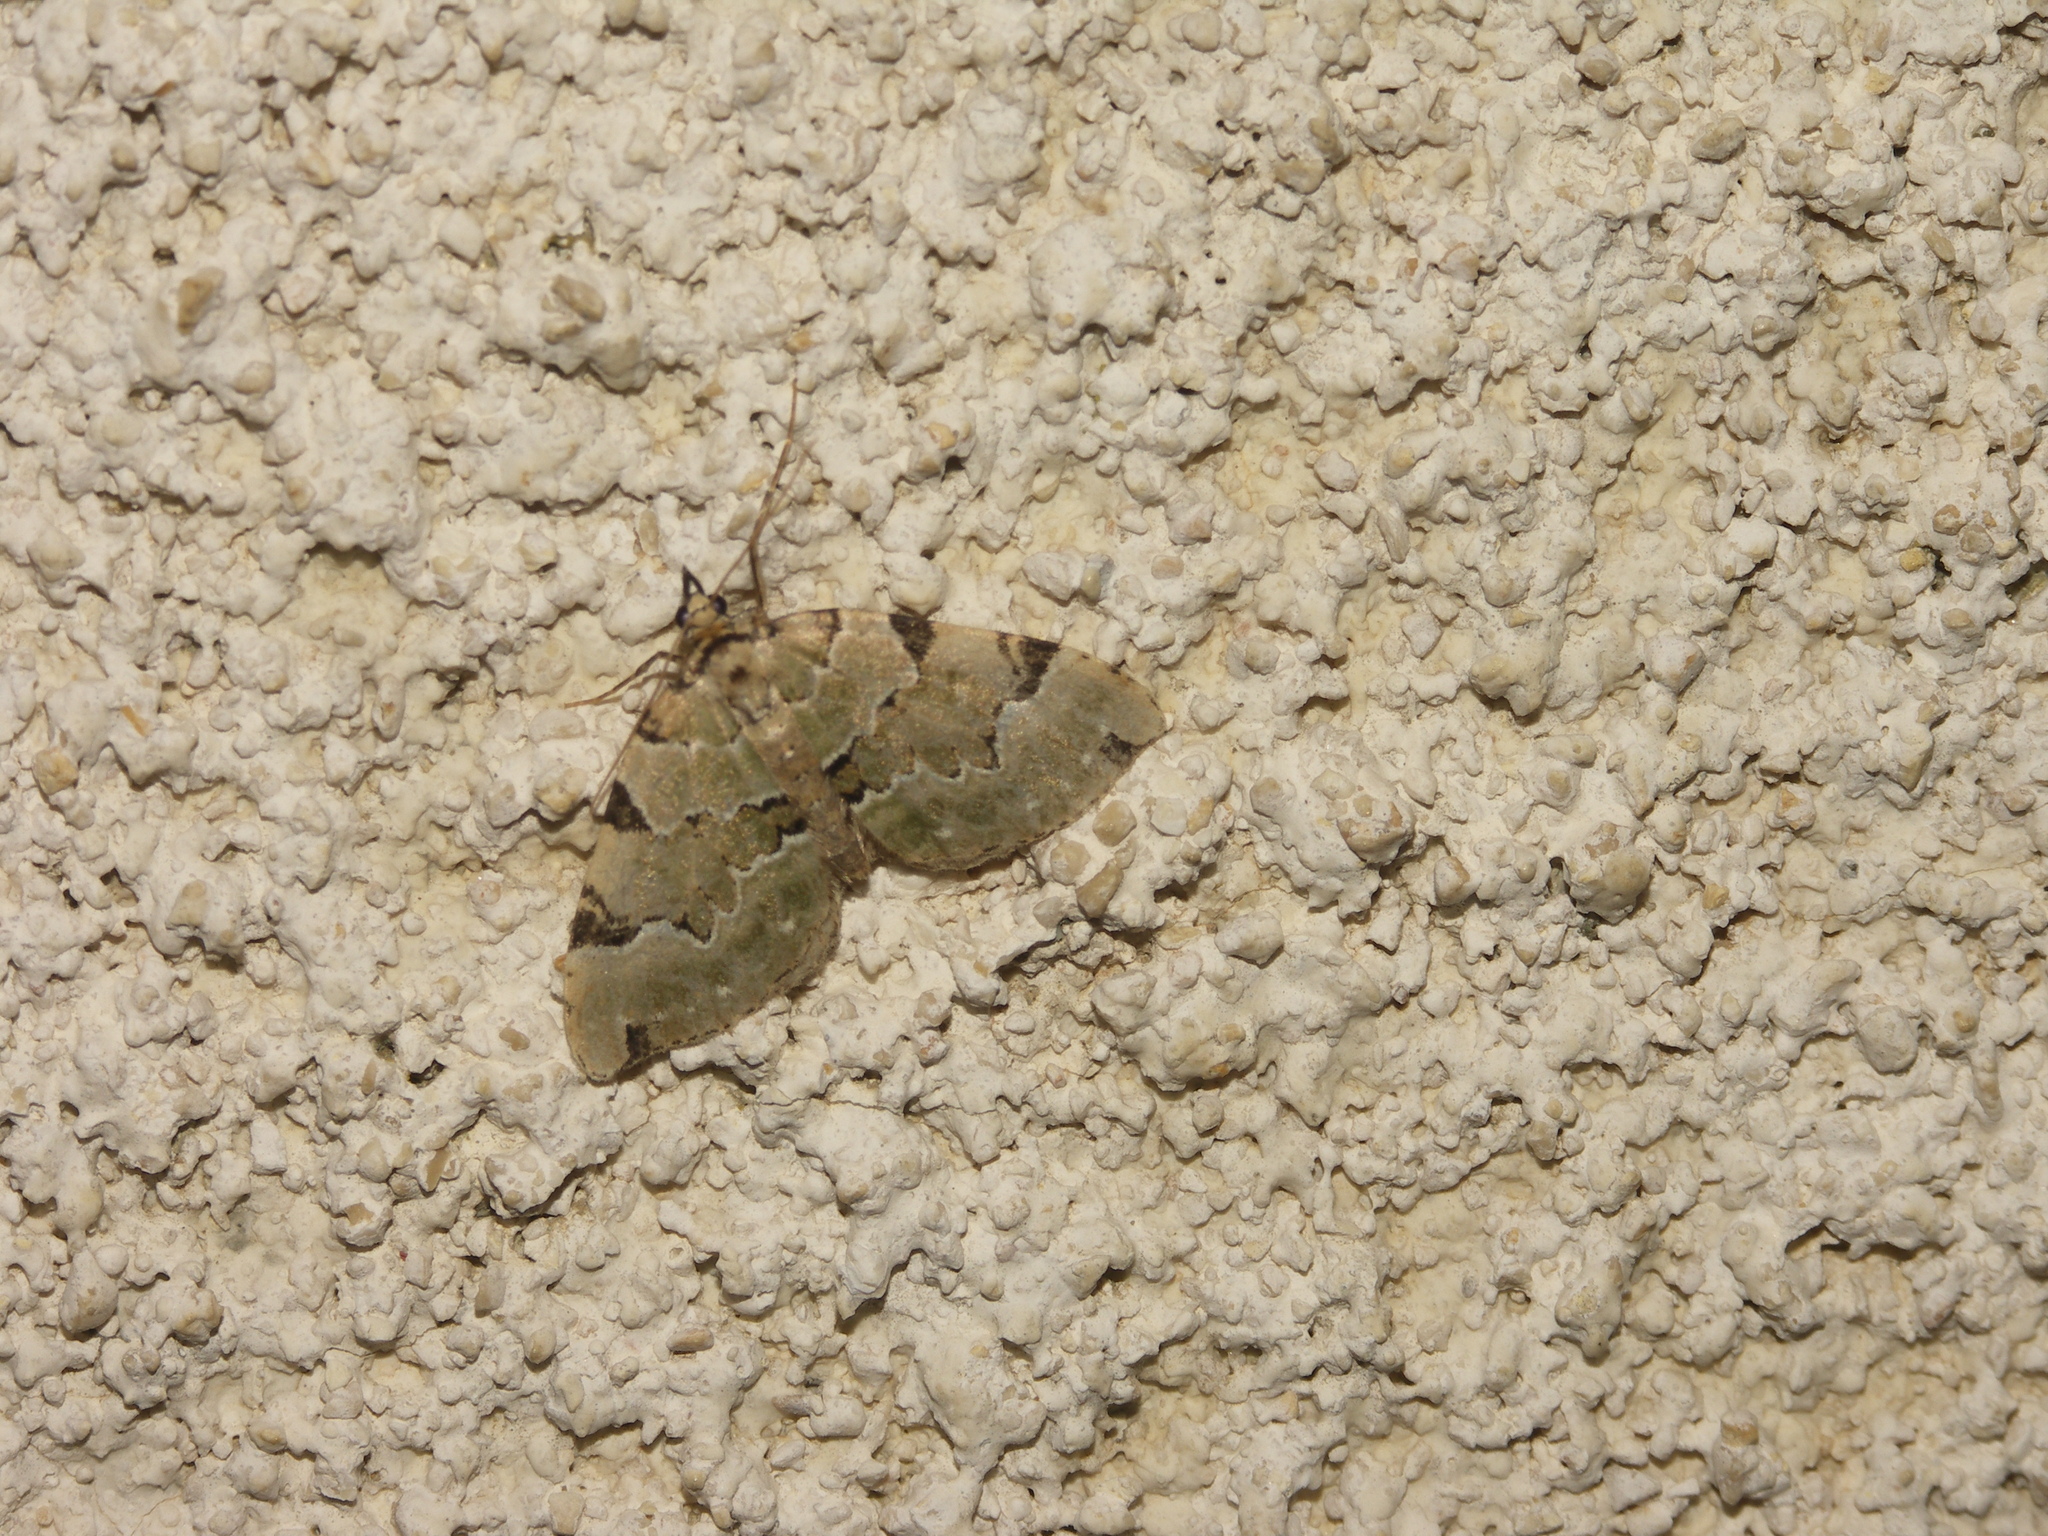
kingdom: Animalia
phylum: Arthropoda
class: Insecta
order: Lepidoptera
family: Geometridae
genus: Colostygia
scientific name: Colostygia pectinataria
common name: Green carpet
